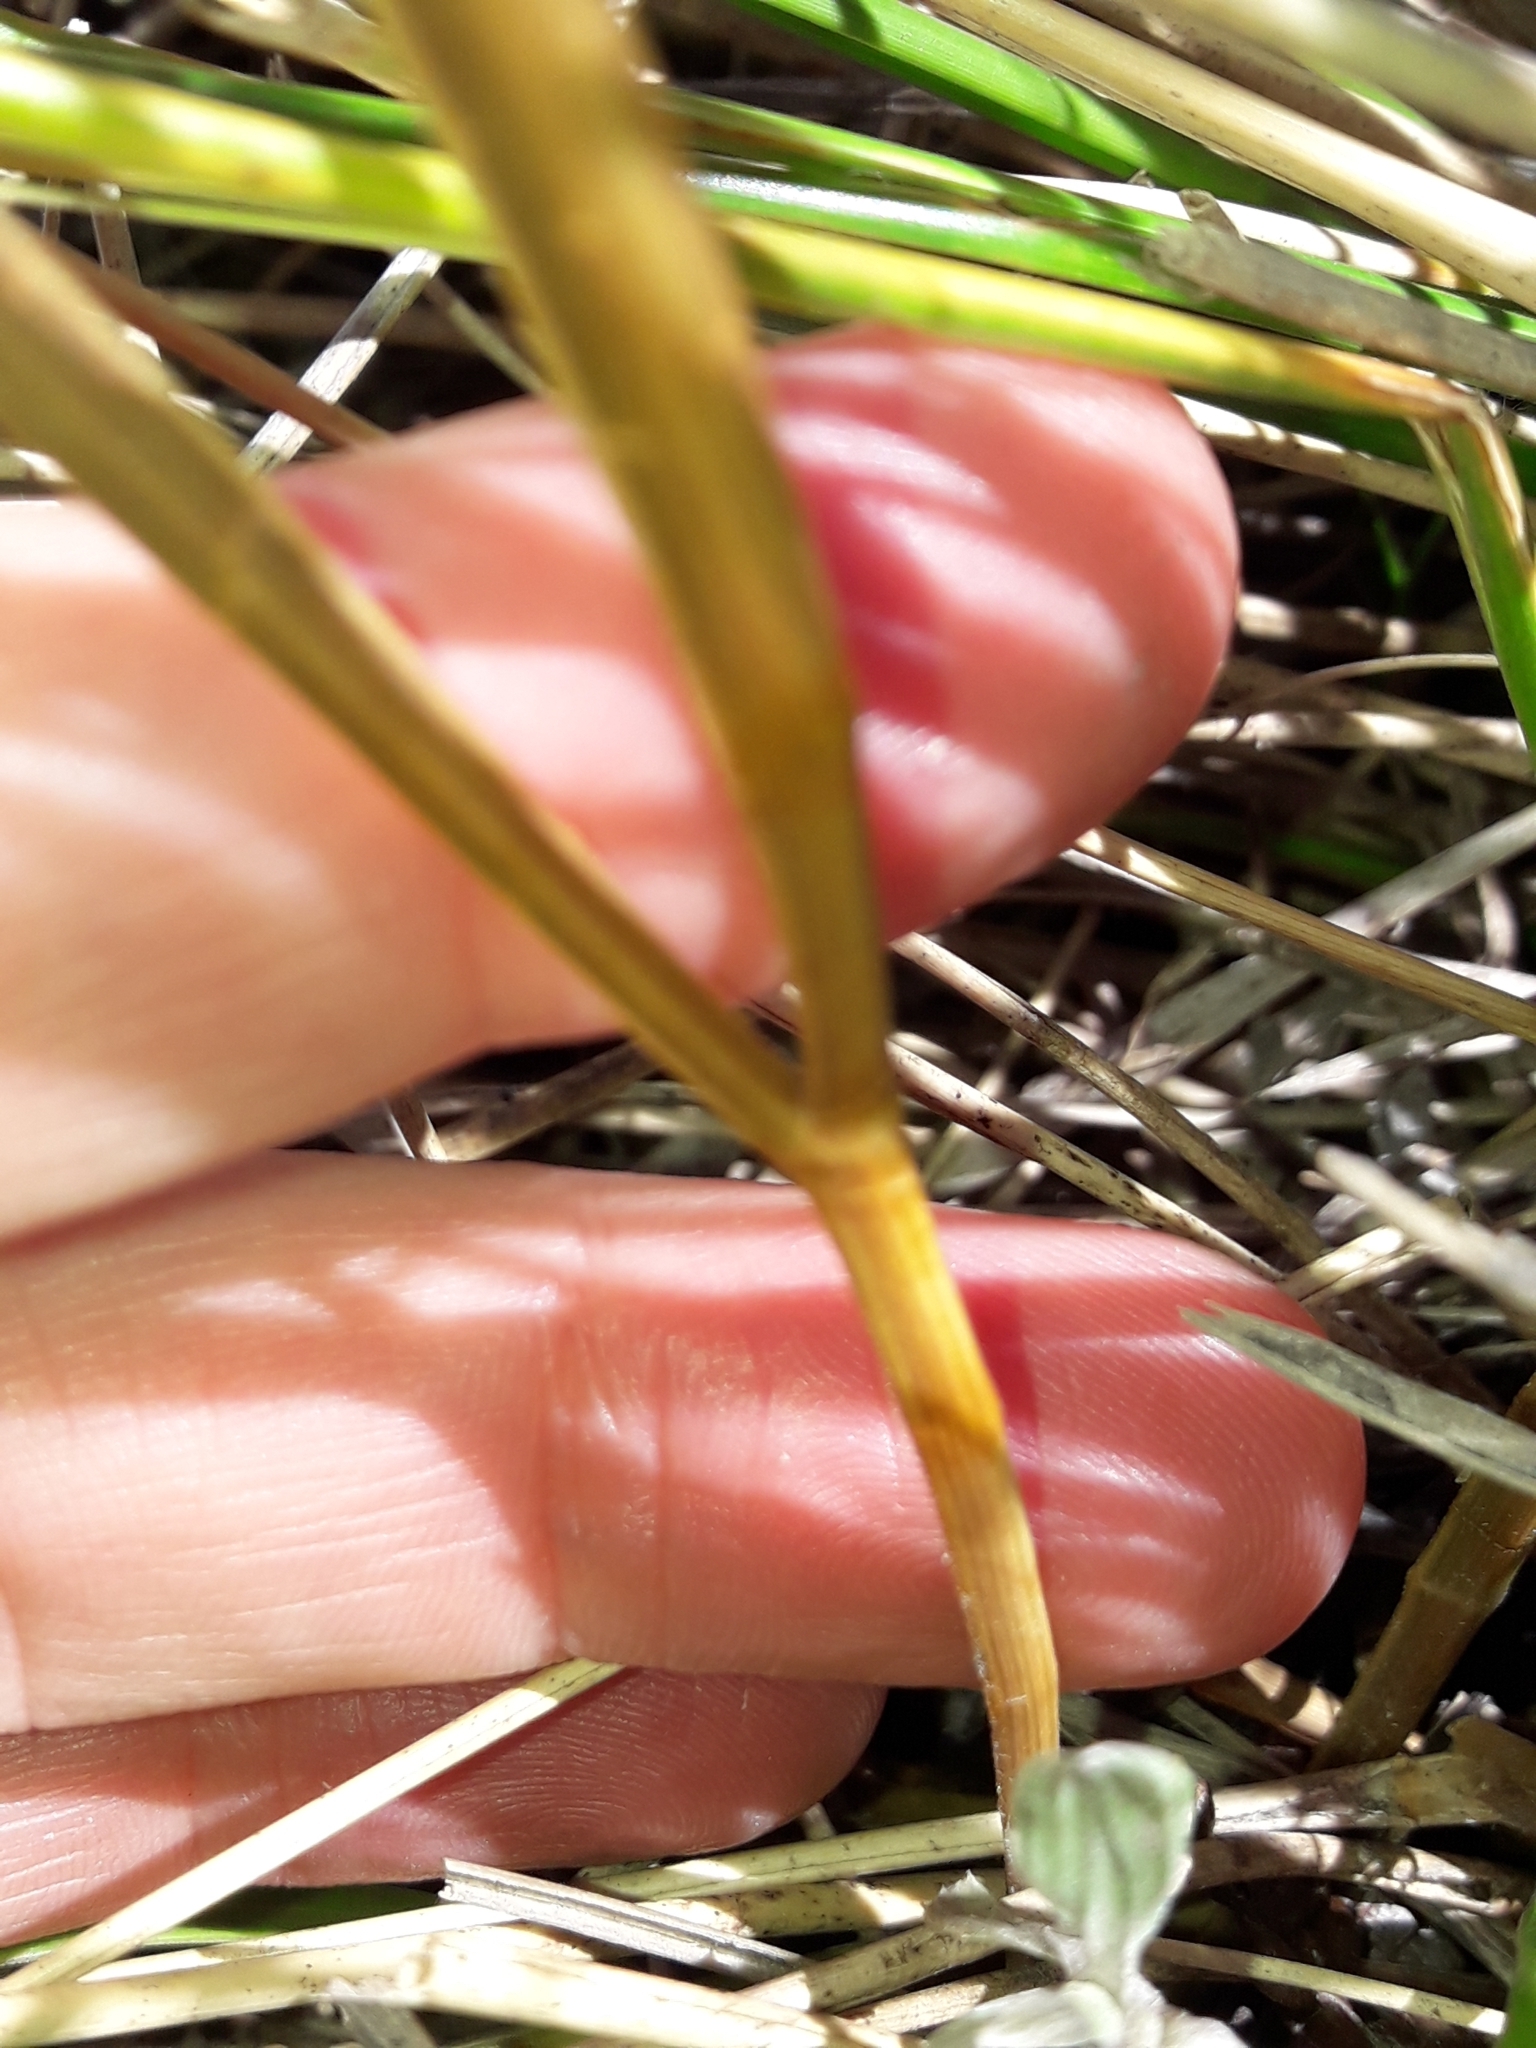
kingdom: Plantae
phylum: Tracheophyta
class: Magnoliopsida
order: Apiales
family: Apiaceae
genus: Aciphylla
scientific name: Aciphylla colensoi
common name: Colenso's spaniard
